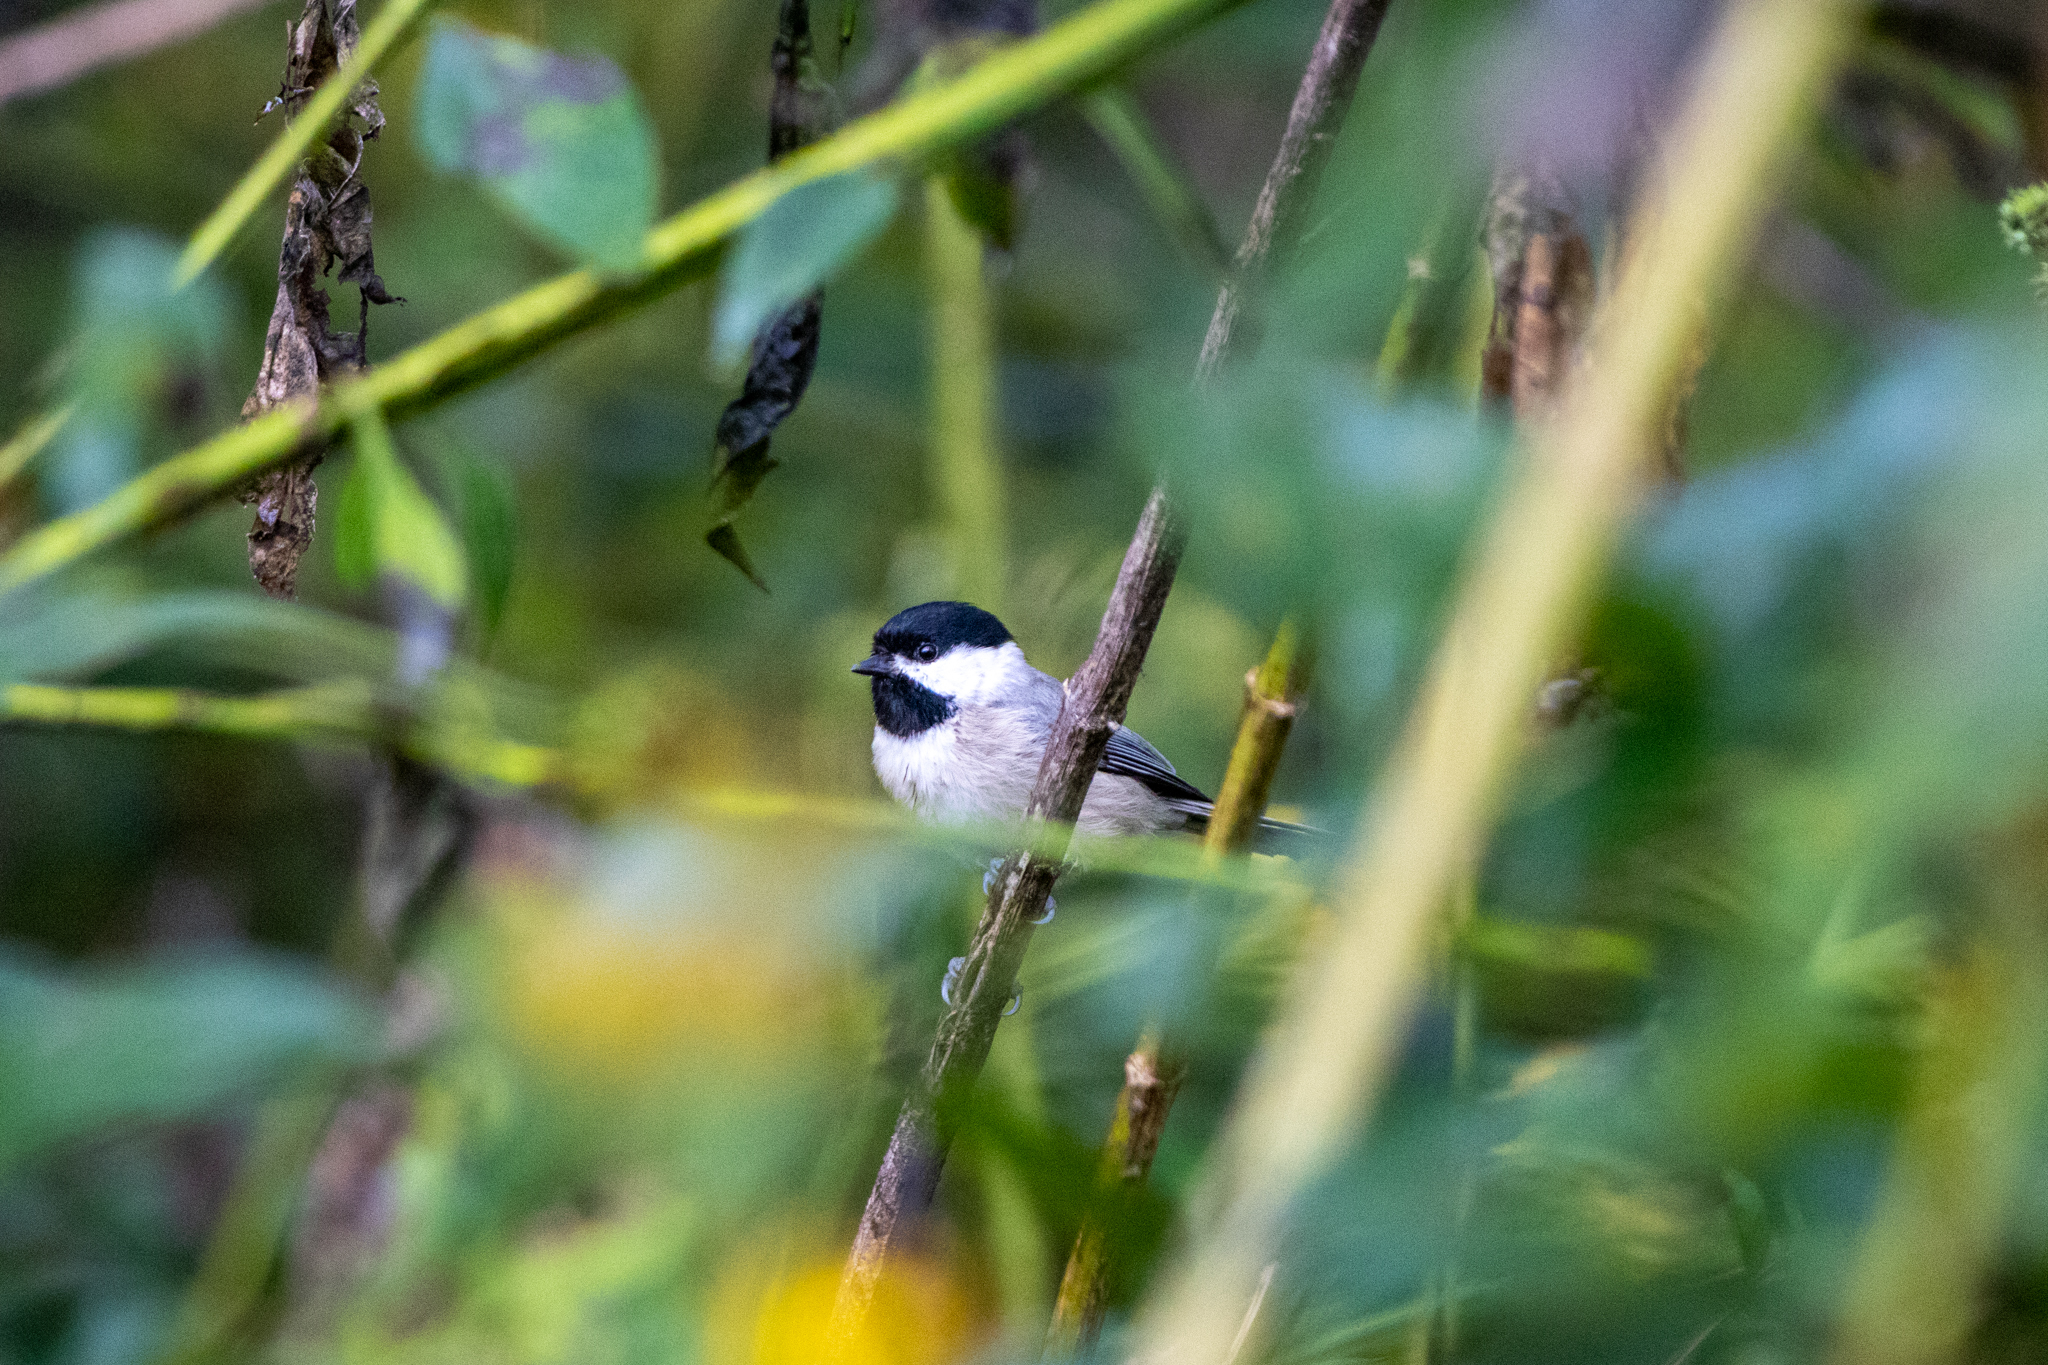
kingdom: Animalia
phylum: Chordata
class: Aves
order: Passeriformes
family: Paridae
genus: Poecile
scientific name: Poecile carolinensis
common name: Carolina chickadee
